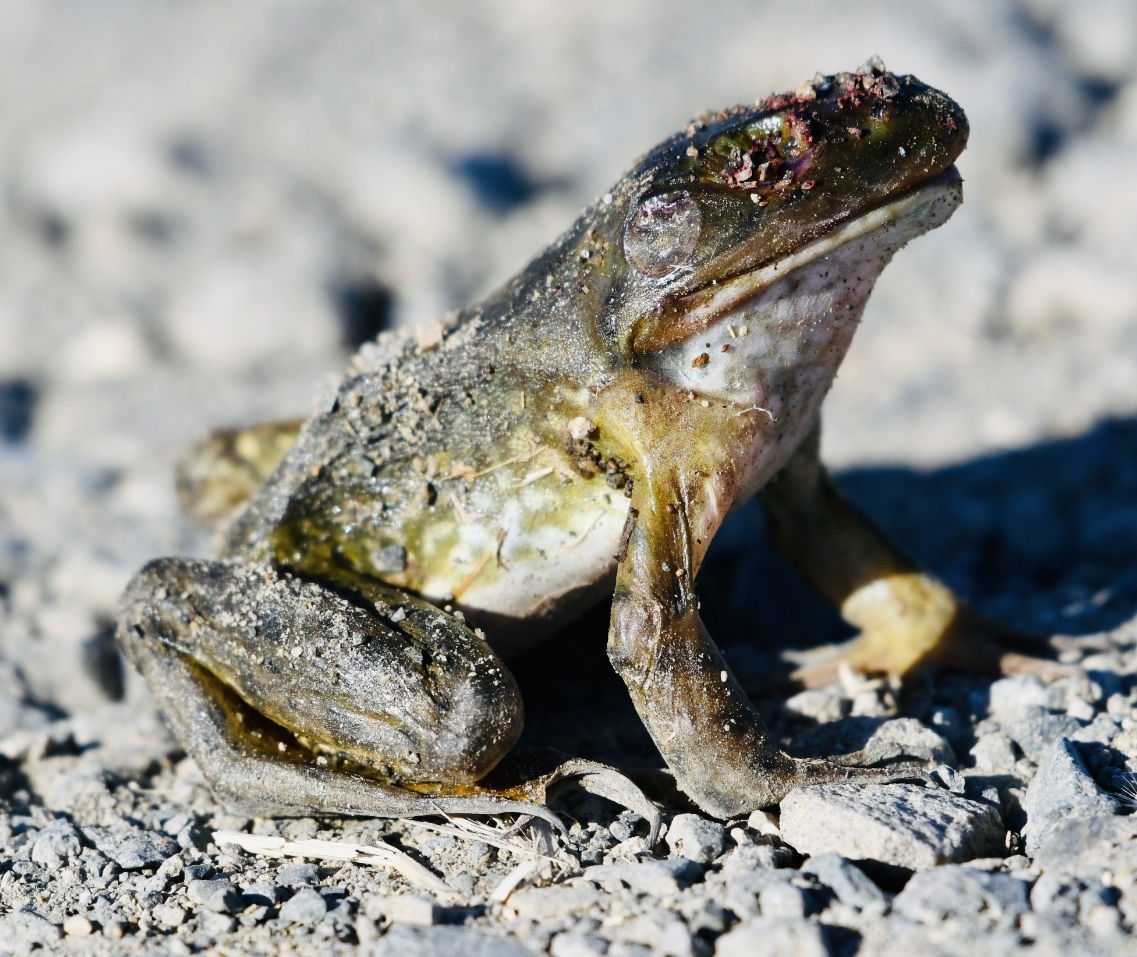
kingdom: Animalia
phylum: Chordata
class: Amphibia
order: Anura
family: Ranidae
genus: Lithobates
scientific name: Lithobates catesbeianus
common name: American bullfrog
